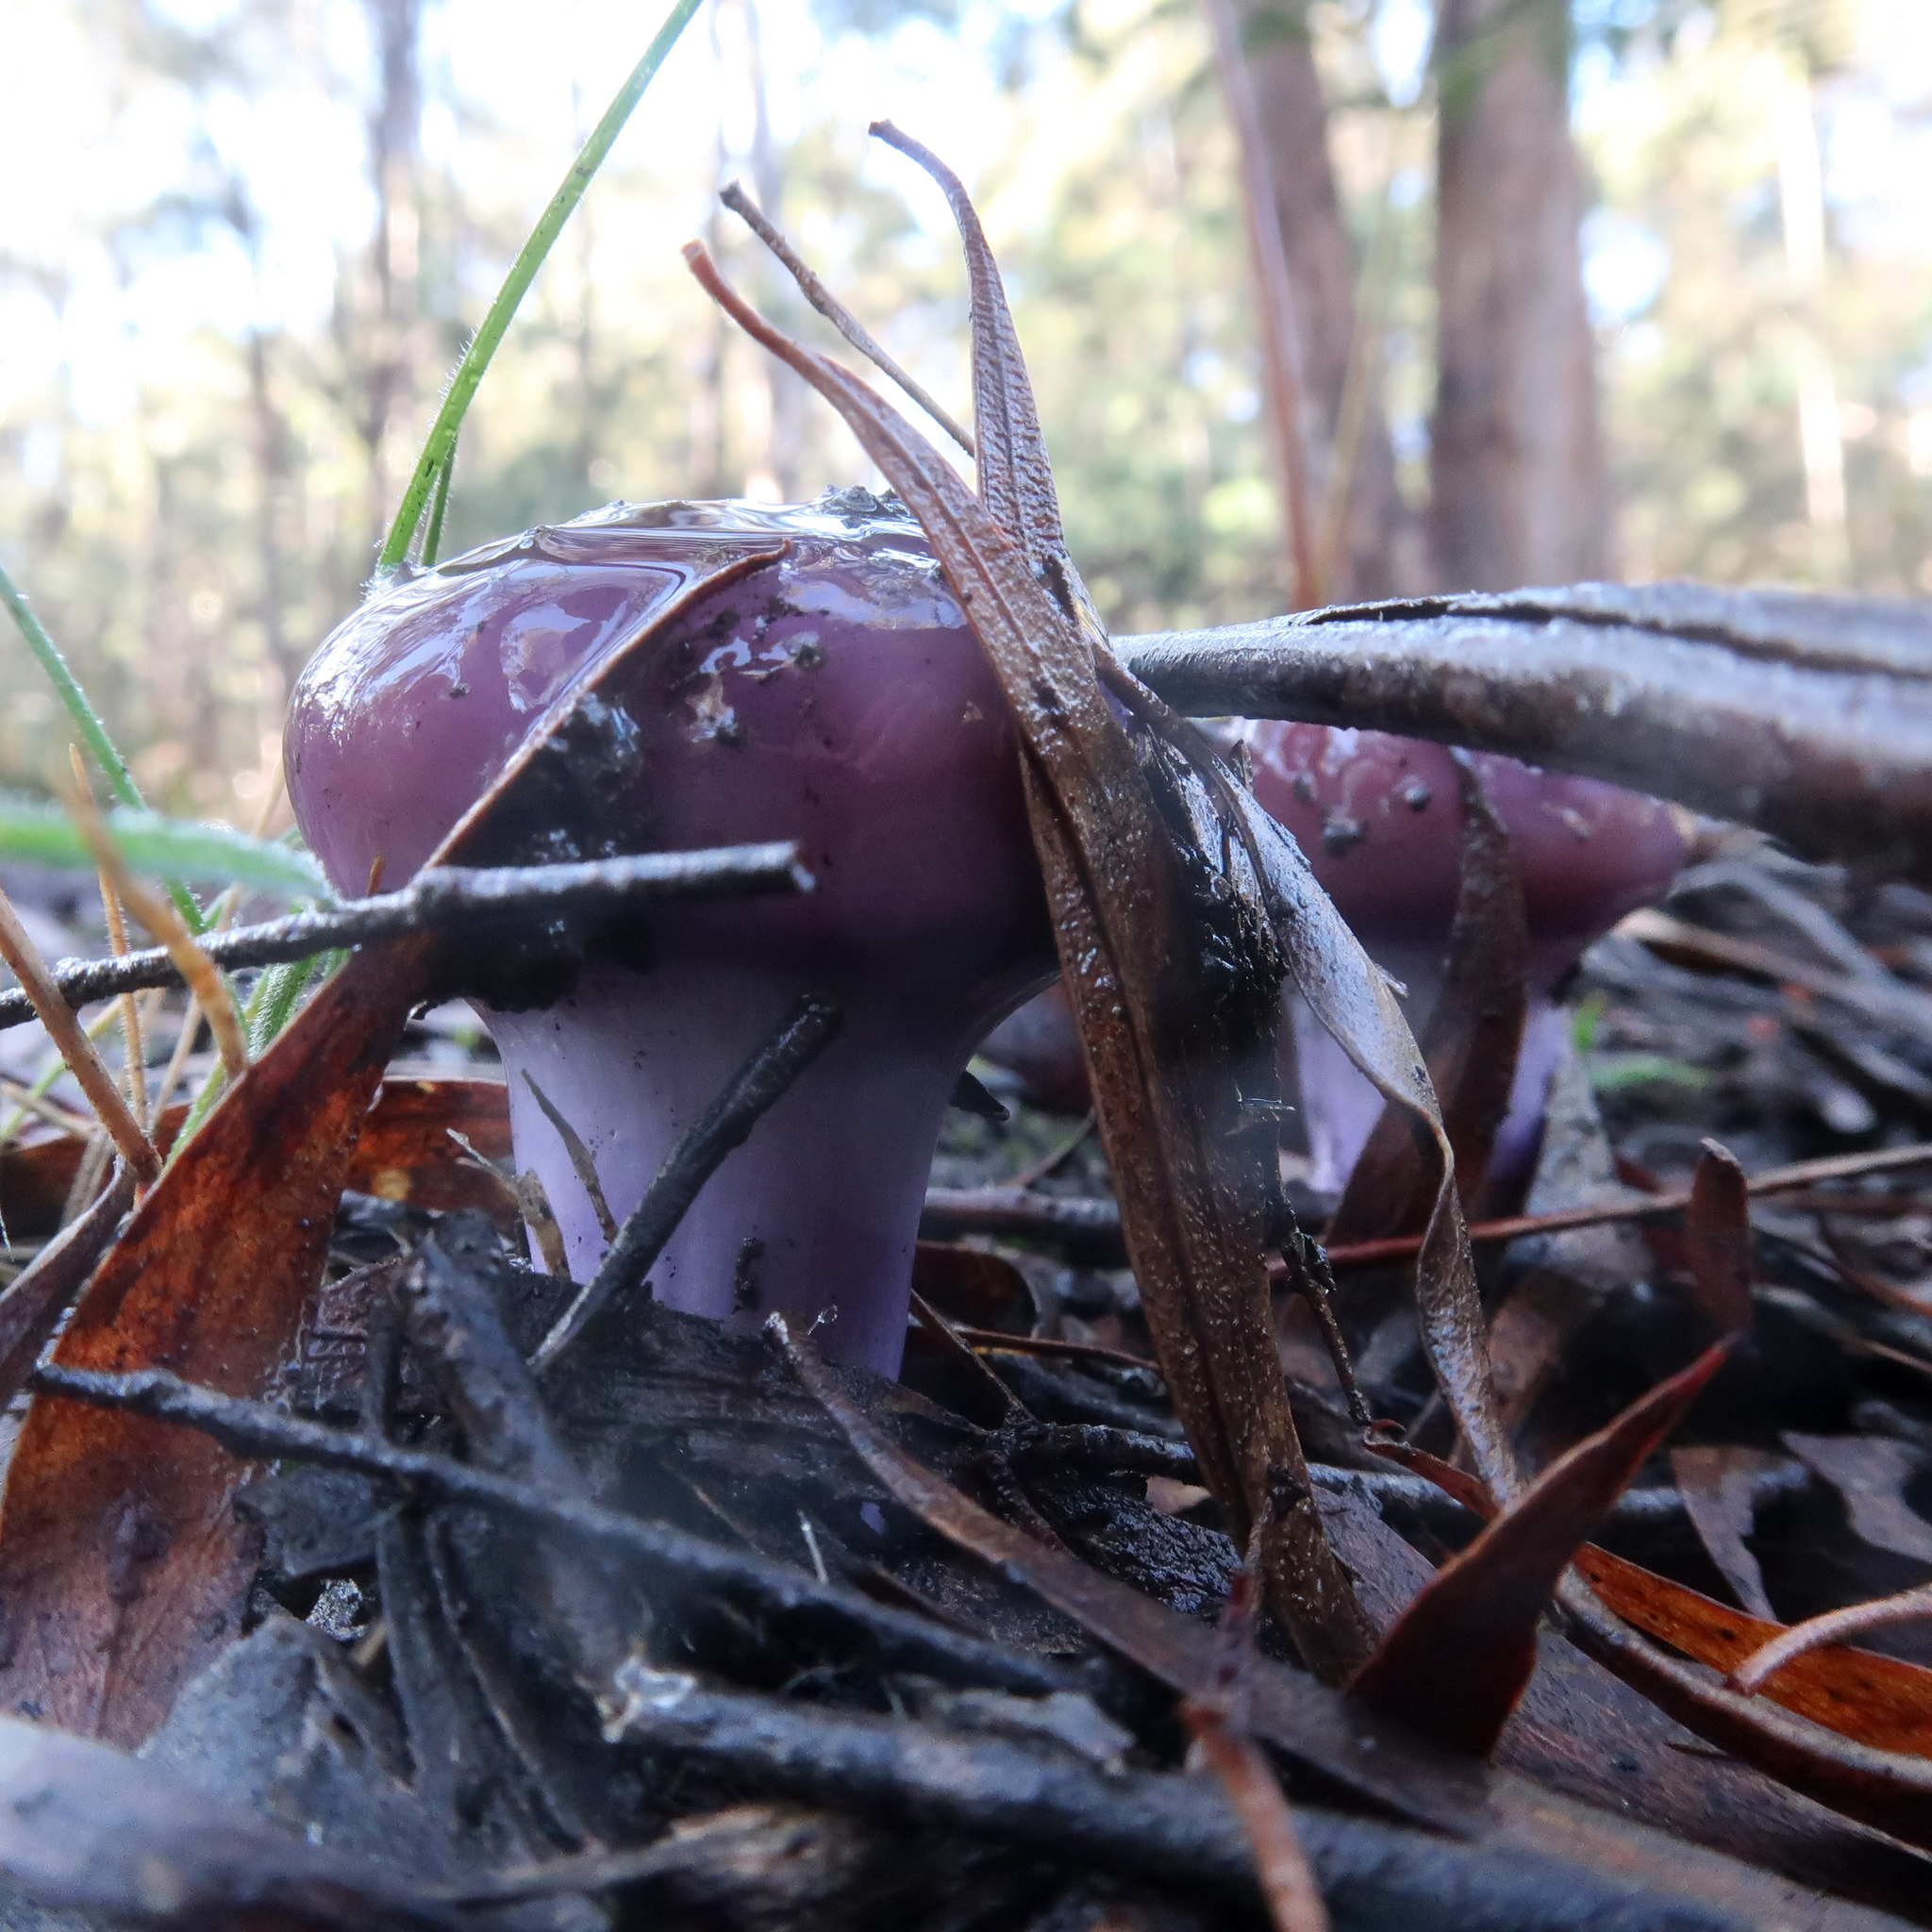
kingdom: Fungi
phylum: Basidiomycota
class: Agaricomycetes
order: Agaricales
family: Cortinariaceae
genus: Cortinarius
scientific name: Cortinarius archeri
